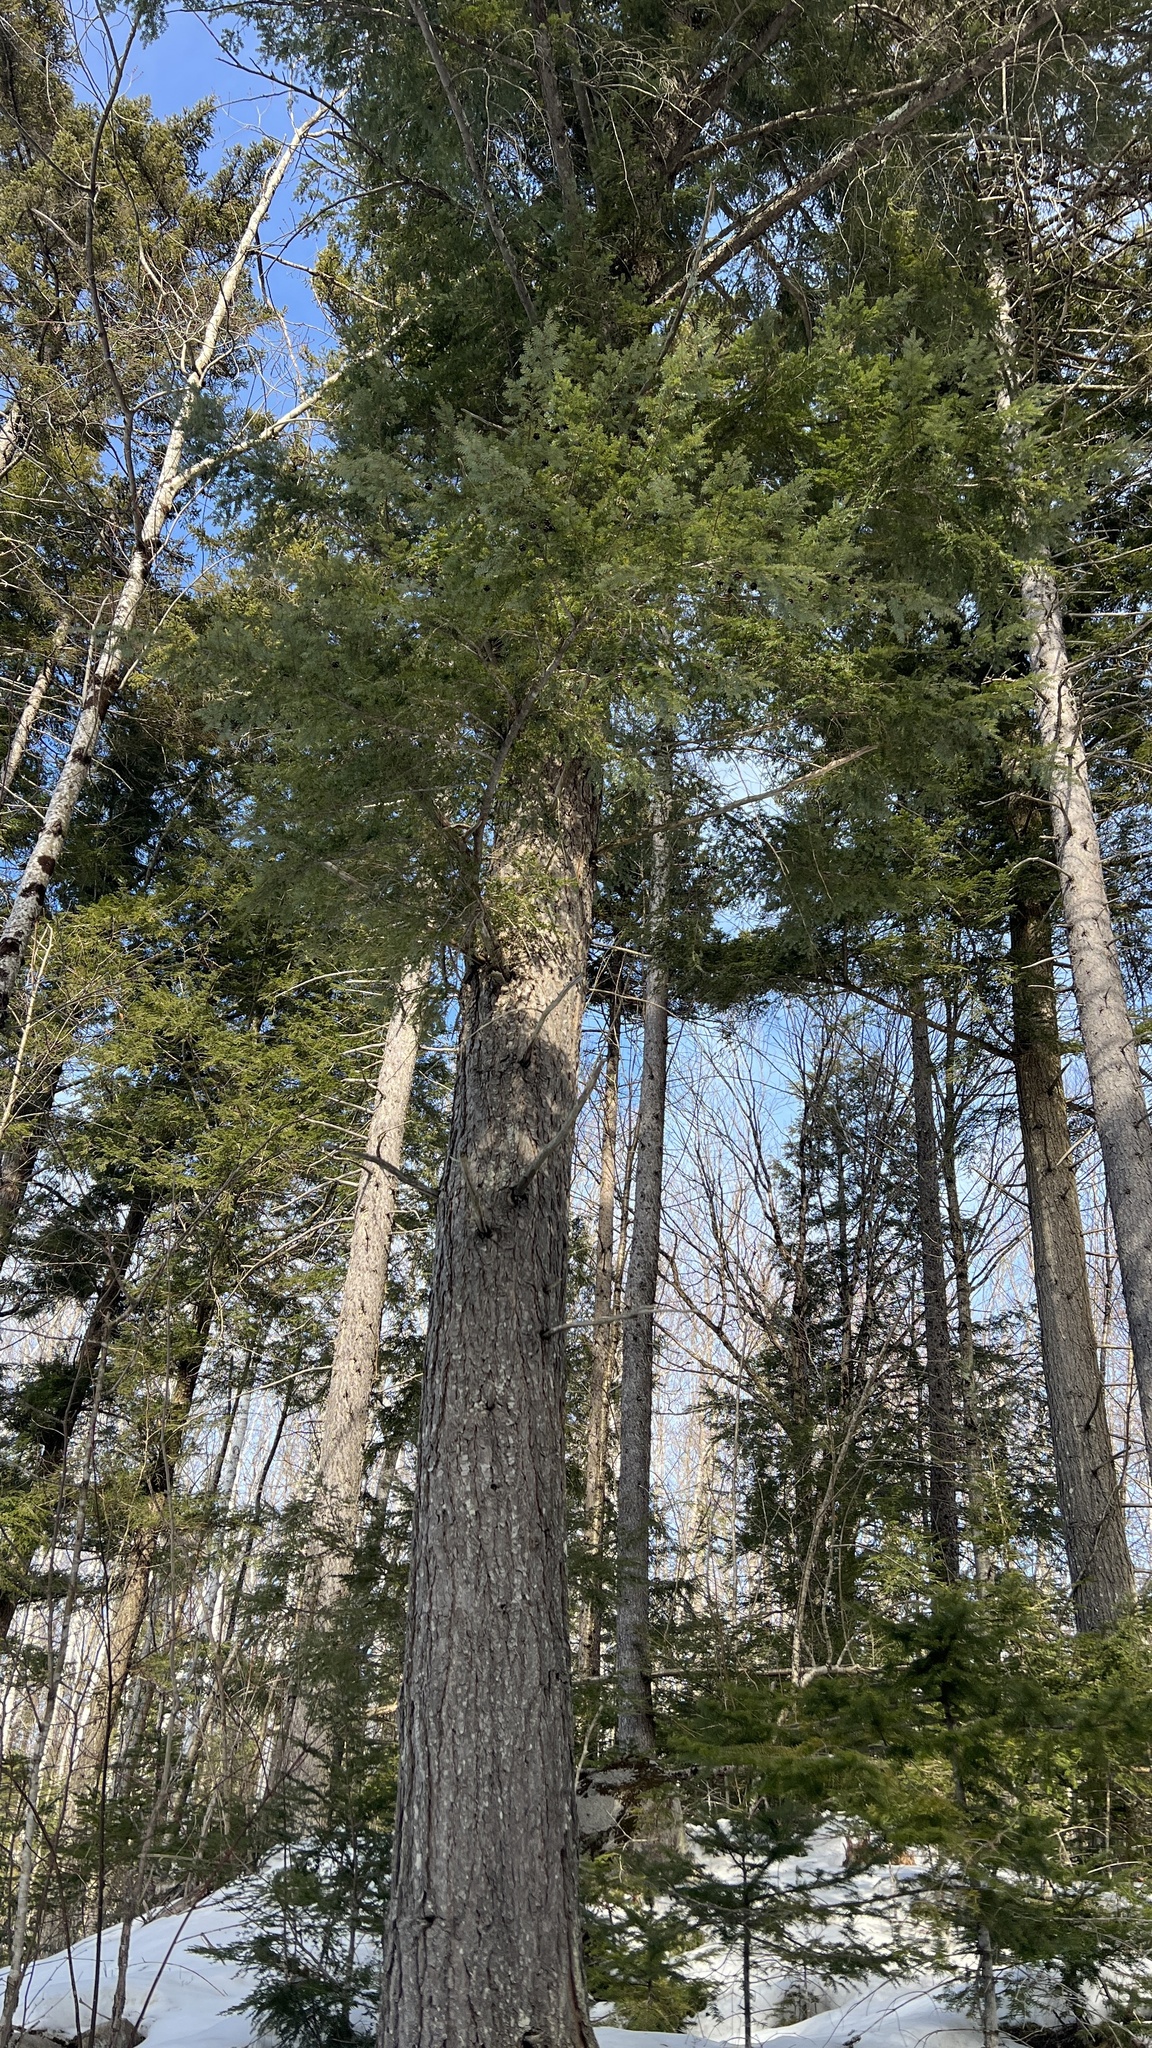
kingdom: Plantae
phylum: Tracheophyta
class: Pinopsida
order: Pinales
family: Pinaceae
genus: Tsuga
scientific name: Tsuga canadensis
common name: Eastern hemlock
